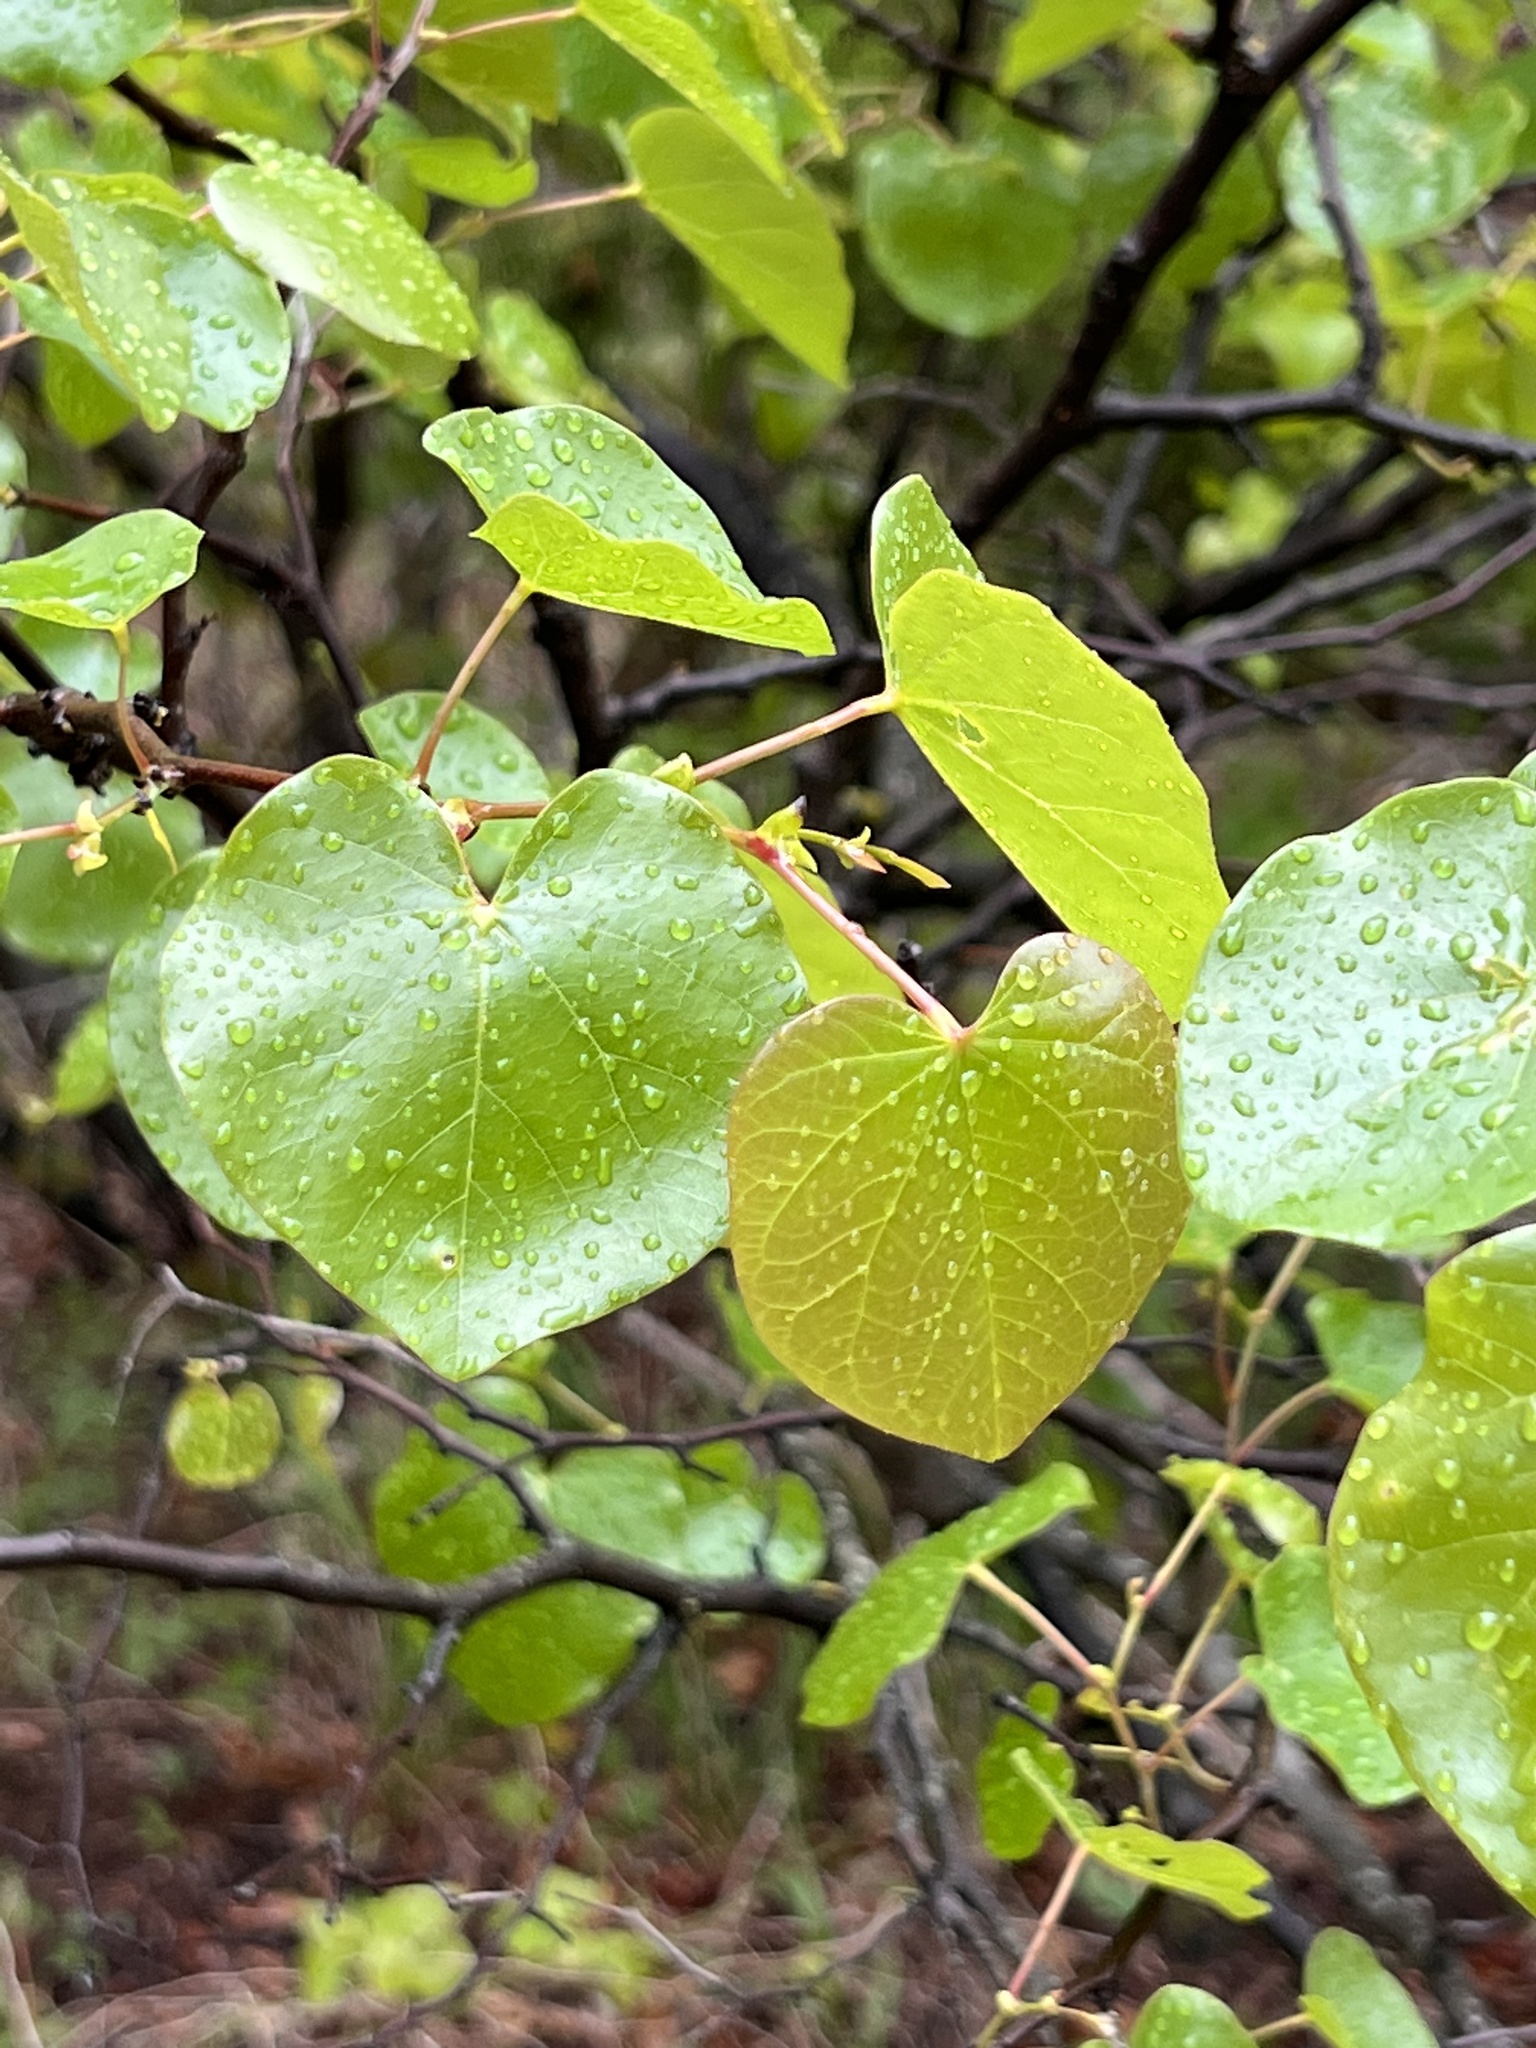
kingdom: Plantae
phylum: Tracheophyta
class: Magnoliopsida
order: Fabales
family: Fabaceae
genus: Cercis
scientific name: Cercis canadensis
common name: Eastern redbud
